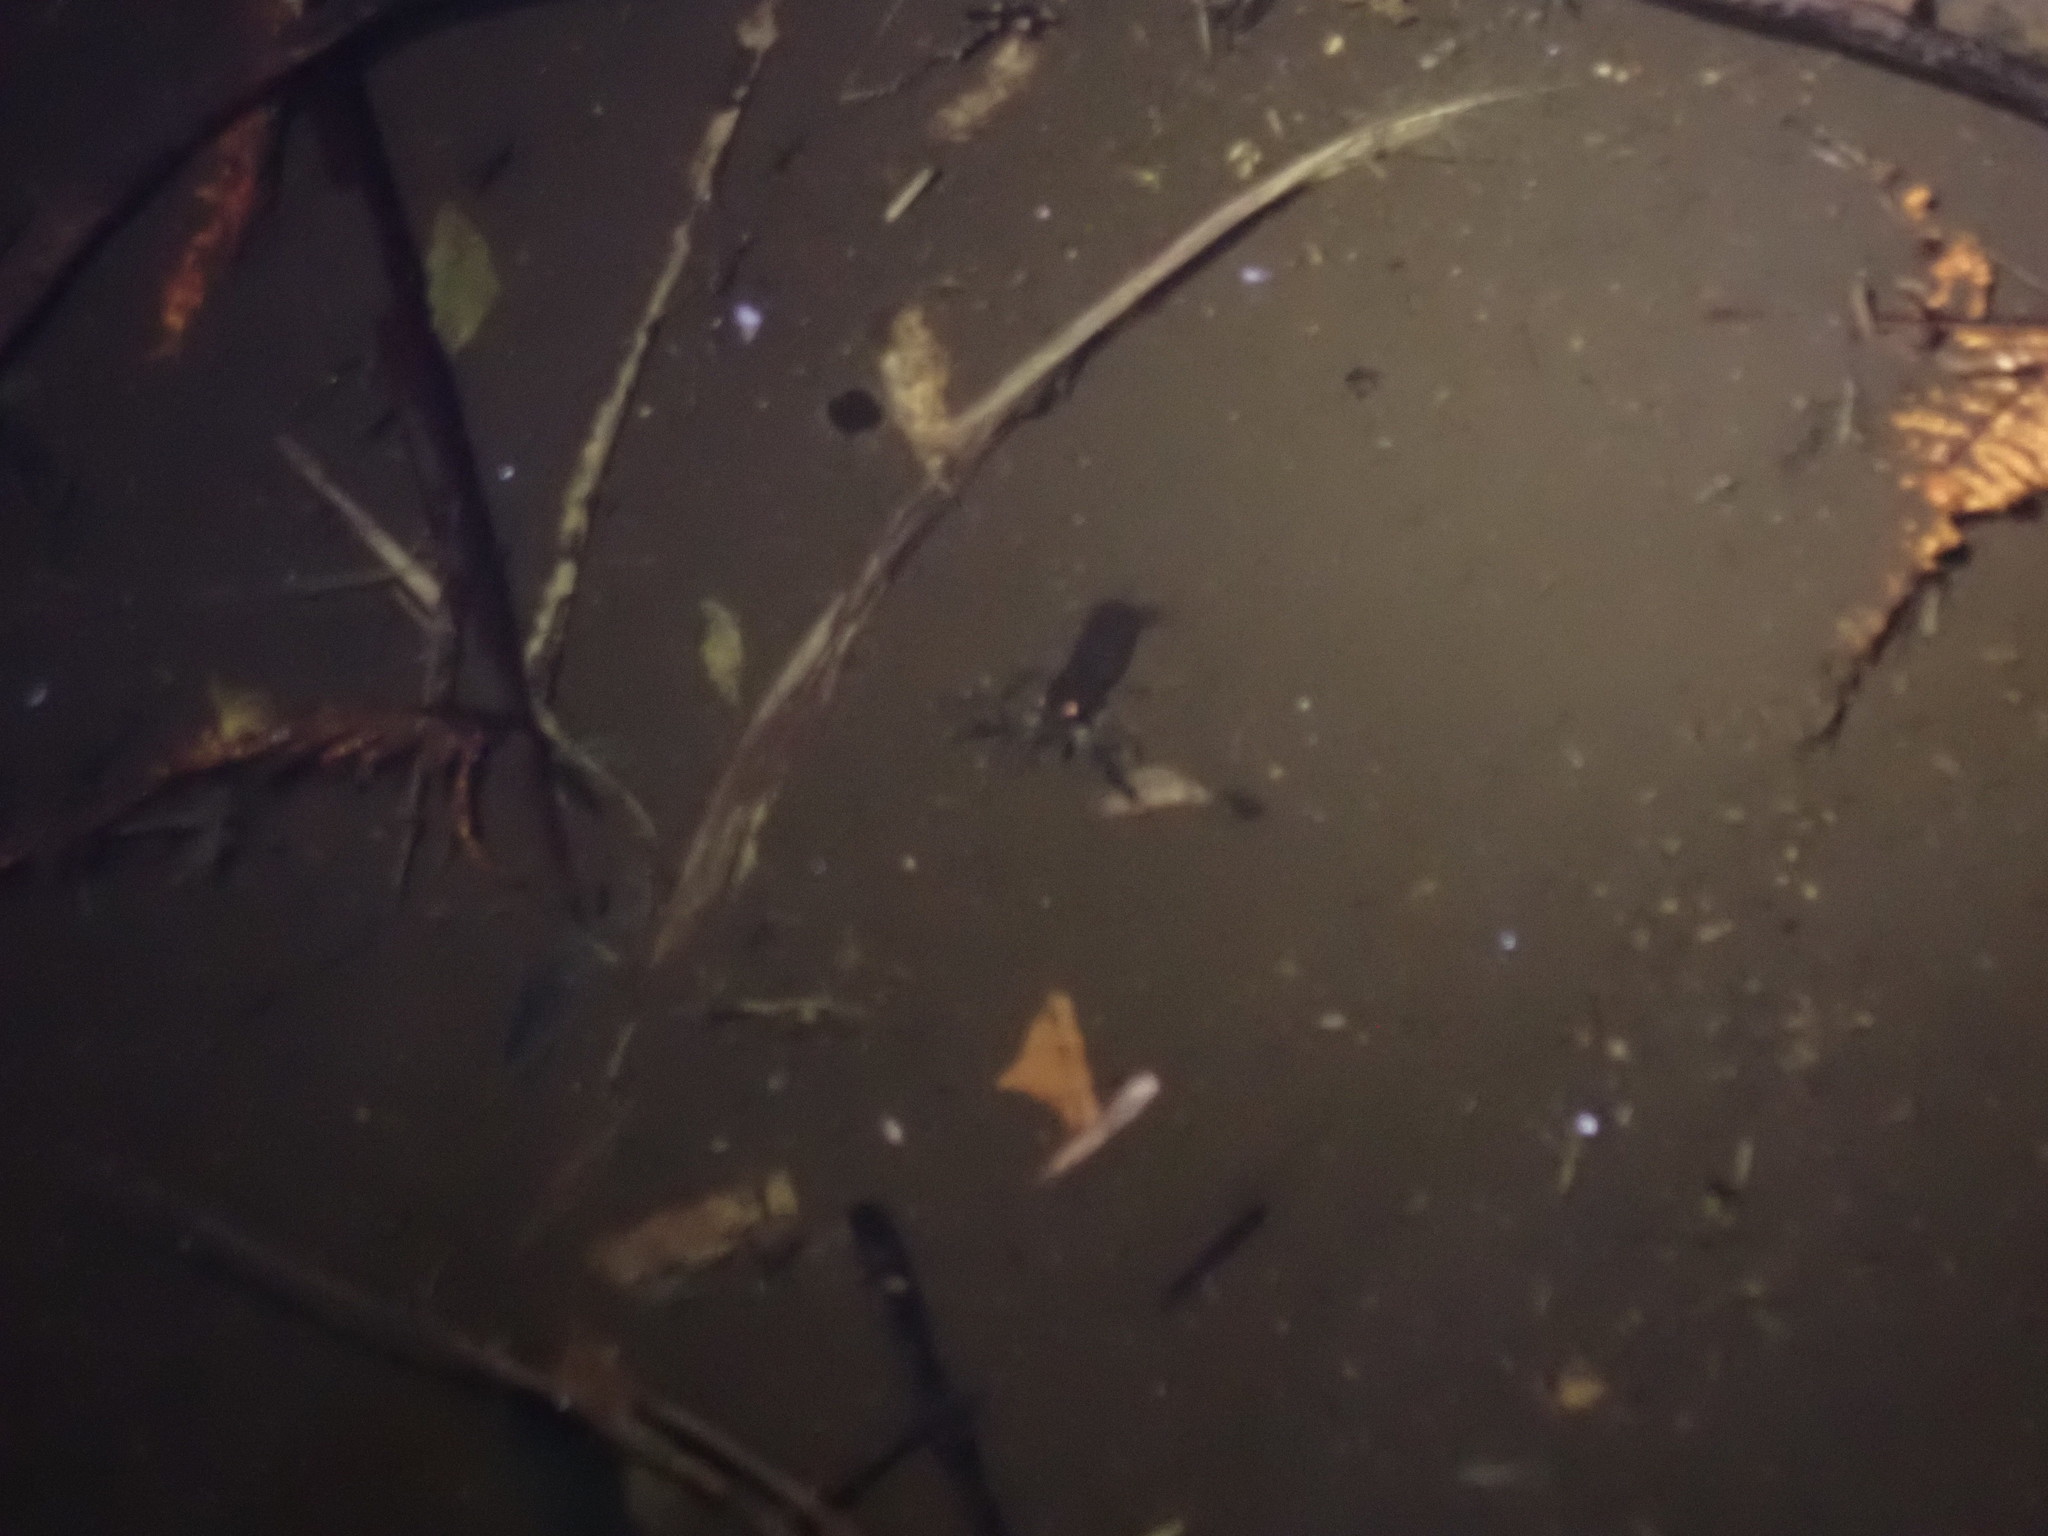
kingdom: Animalia
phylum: Arthropoda
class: Malacostraca
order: Decapoda
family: Parastacidae
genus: Paranephrops
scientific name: Paranephrops planifrons
